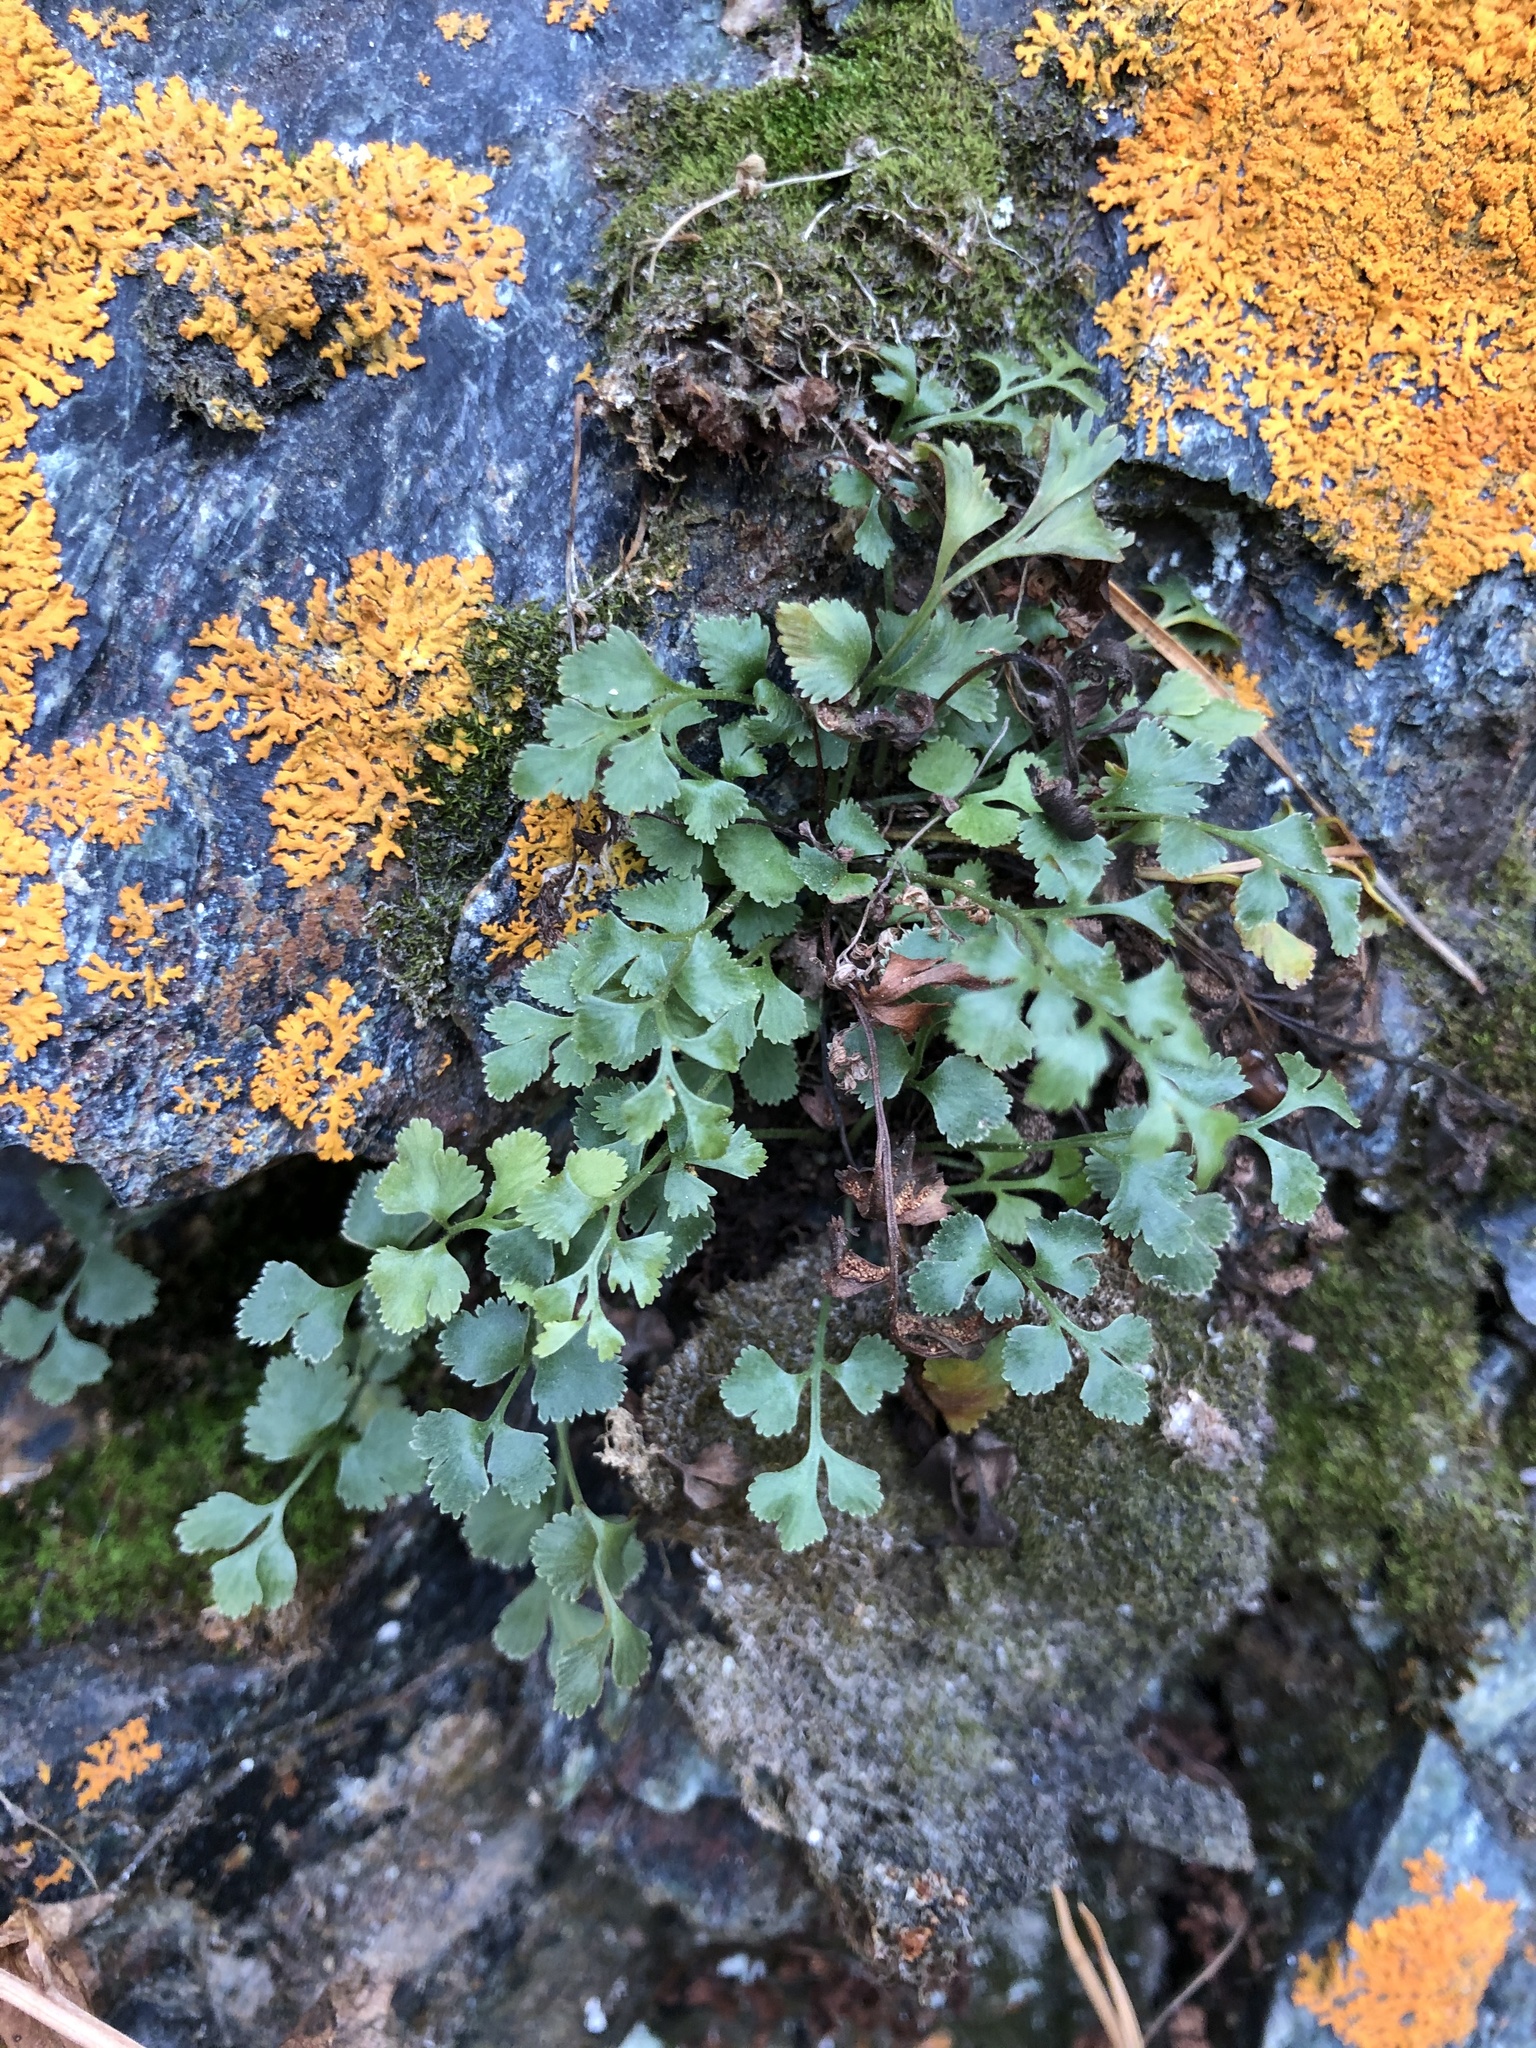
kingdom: Plantae
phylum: Tracheophyta
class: Polypodiopsida
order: Polypodiales
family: Aspleniaceae
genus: Asplenium
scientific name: Asplenium ruta-muraria
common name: Wall-rue
